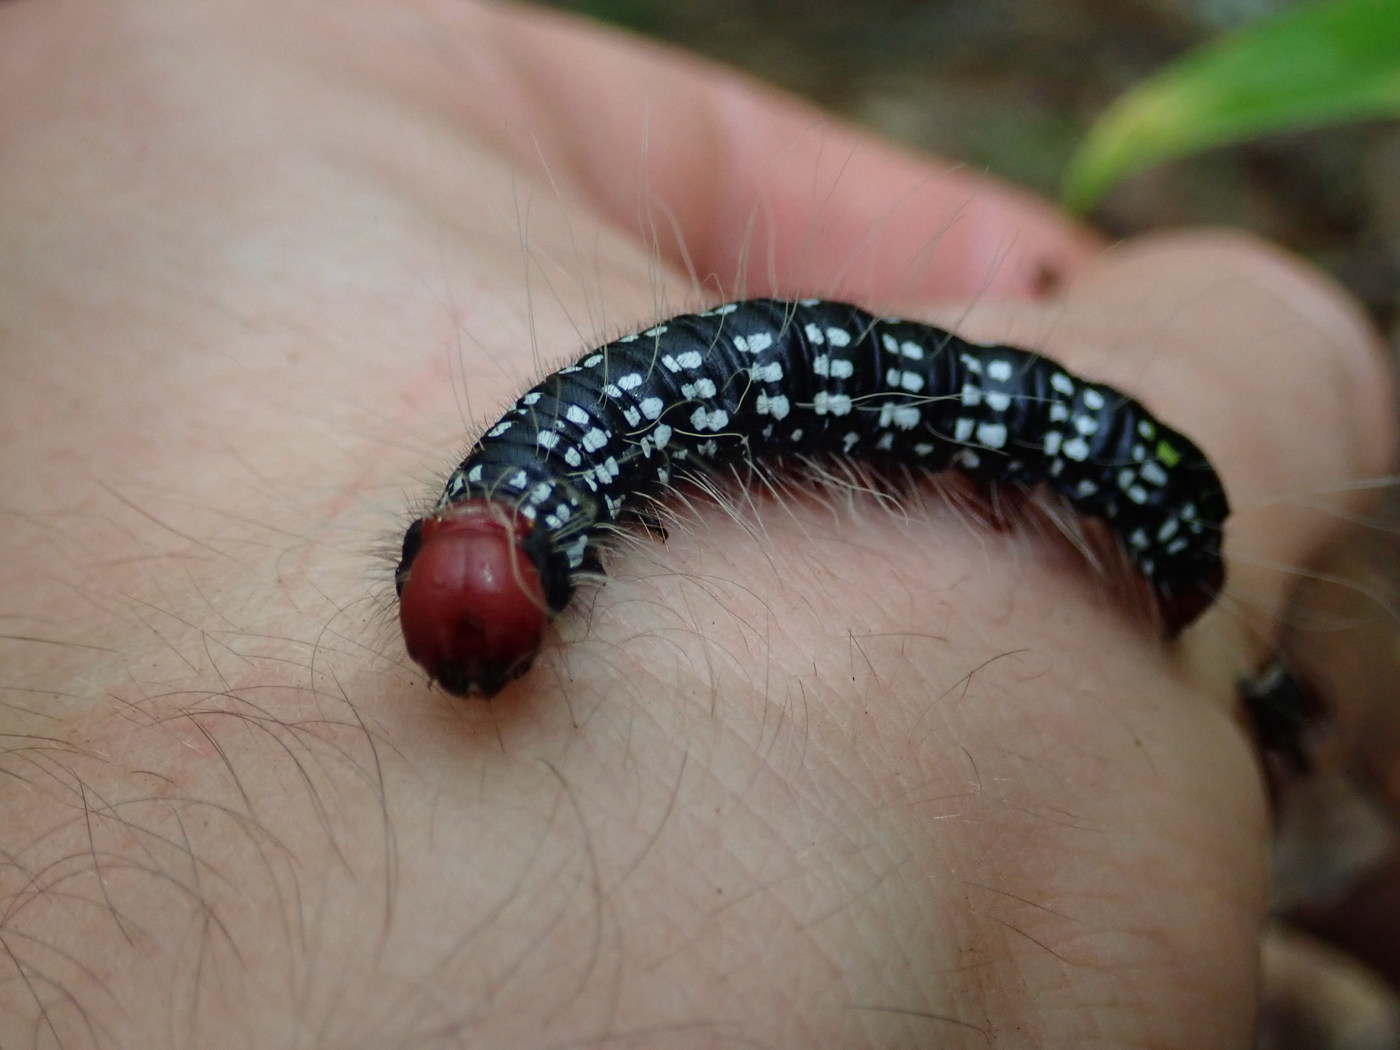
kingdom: Animalia
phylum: Arthropoda
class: Insecta
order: Lepidoptera
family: Notodontidae
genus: Datana
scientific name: Datana major
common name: Azalea caterpillar
